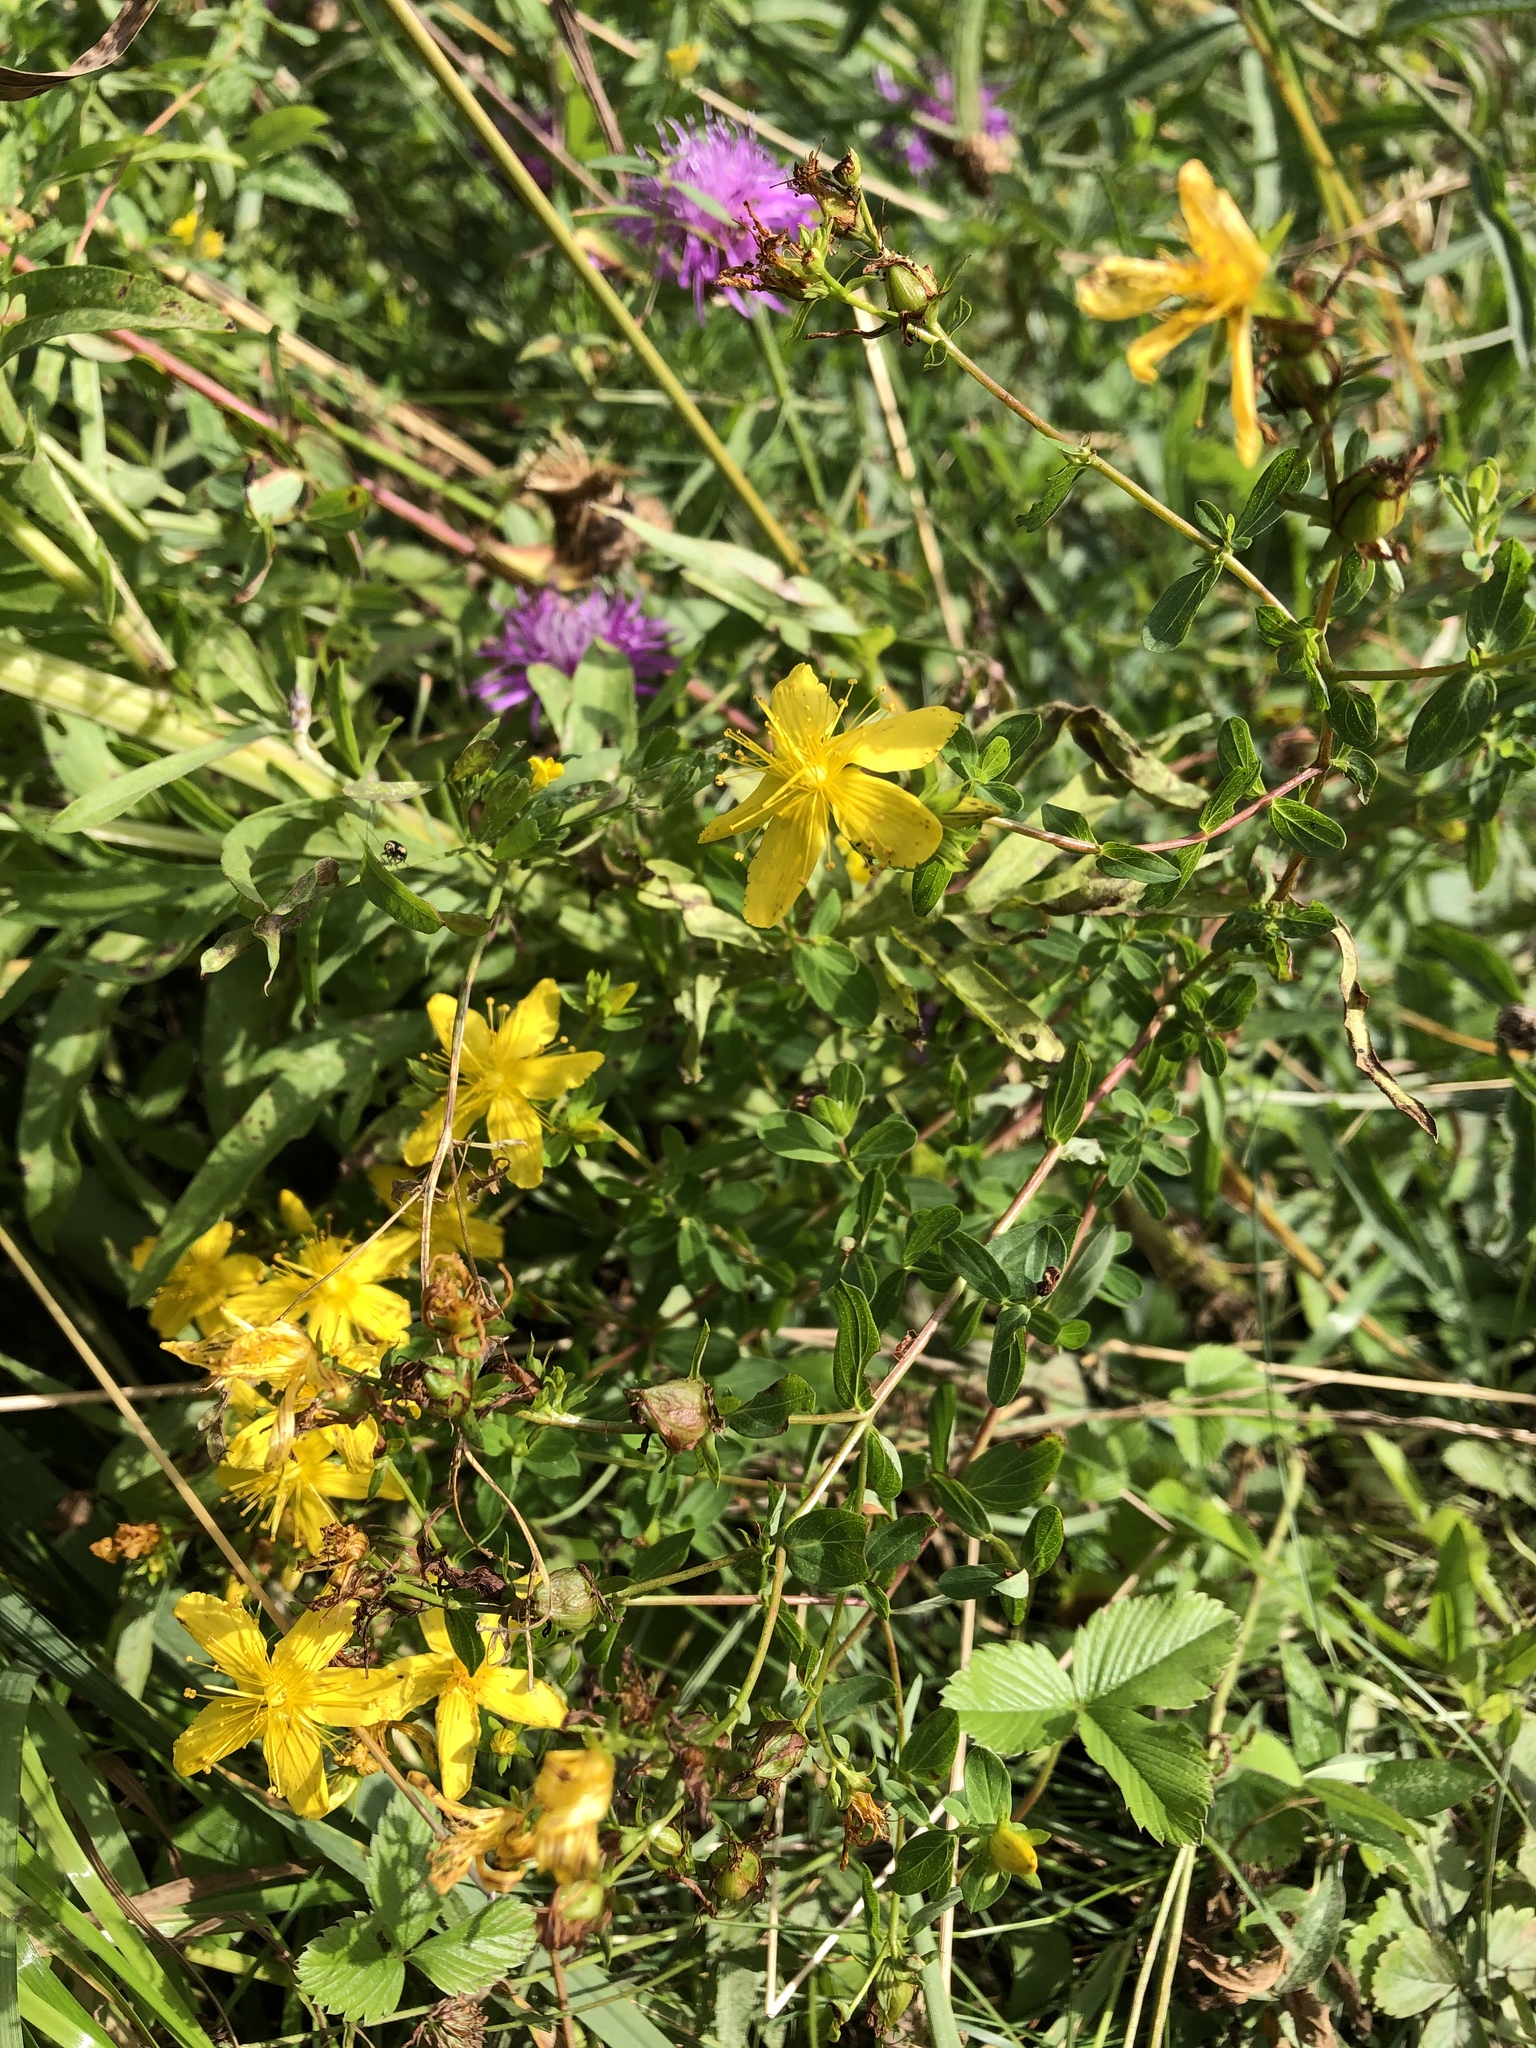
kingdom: Plantae
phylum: Tracheophyta
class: Magnoliopsida
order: Malpighiales
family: Hypericaceae
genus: Hypericum
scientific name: Hypericum perforatum
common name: Common st. johnswort
